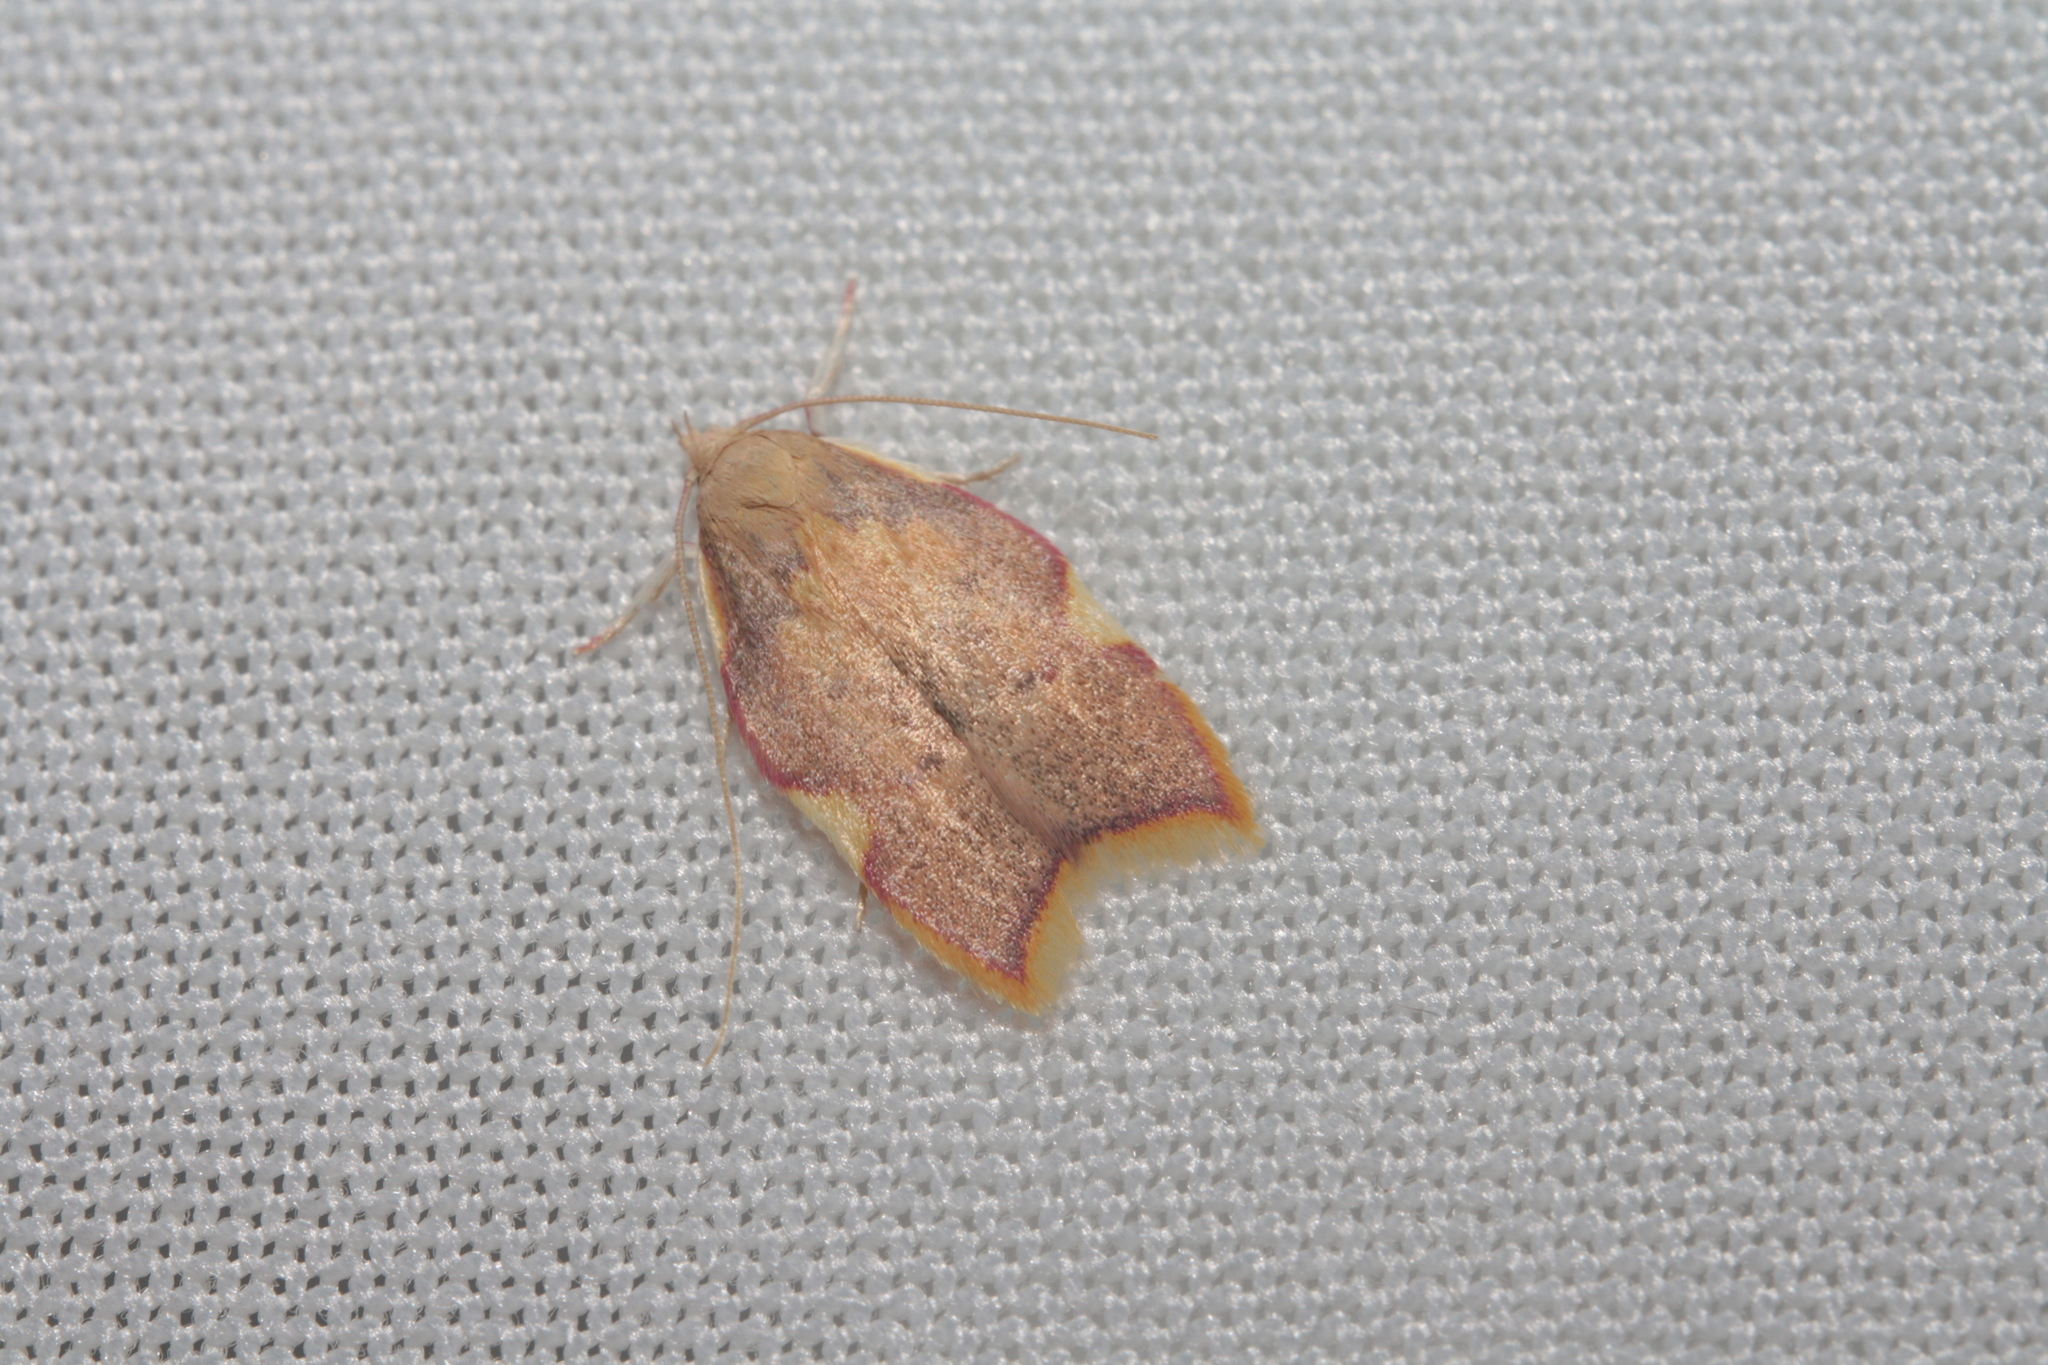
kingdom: Animalia
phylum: Arthropoda
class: Insecta
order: Lepidoptera
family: Peleopodidae
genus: Carcina
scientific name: Carcina quercana
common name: Moth
